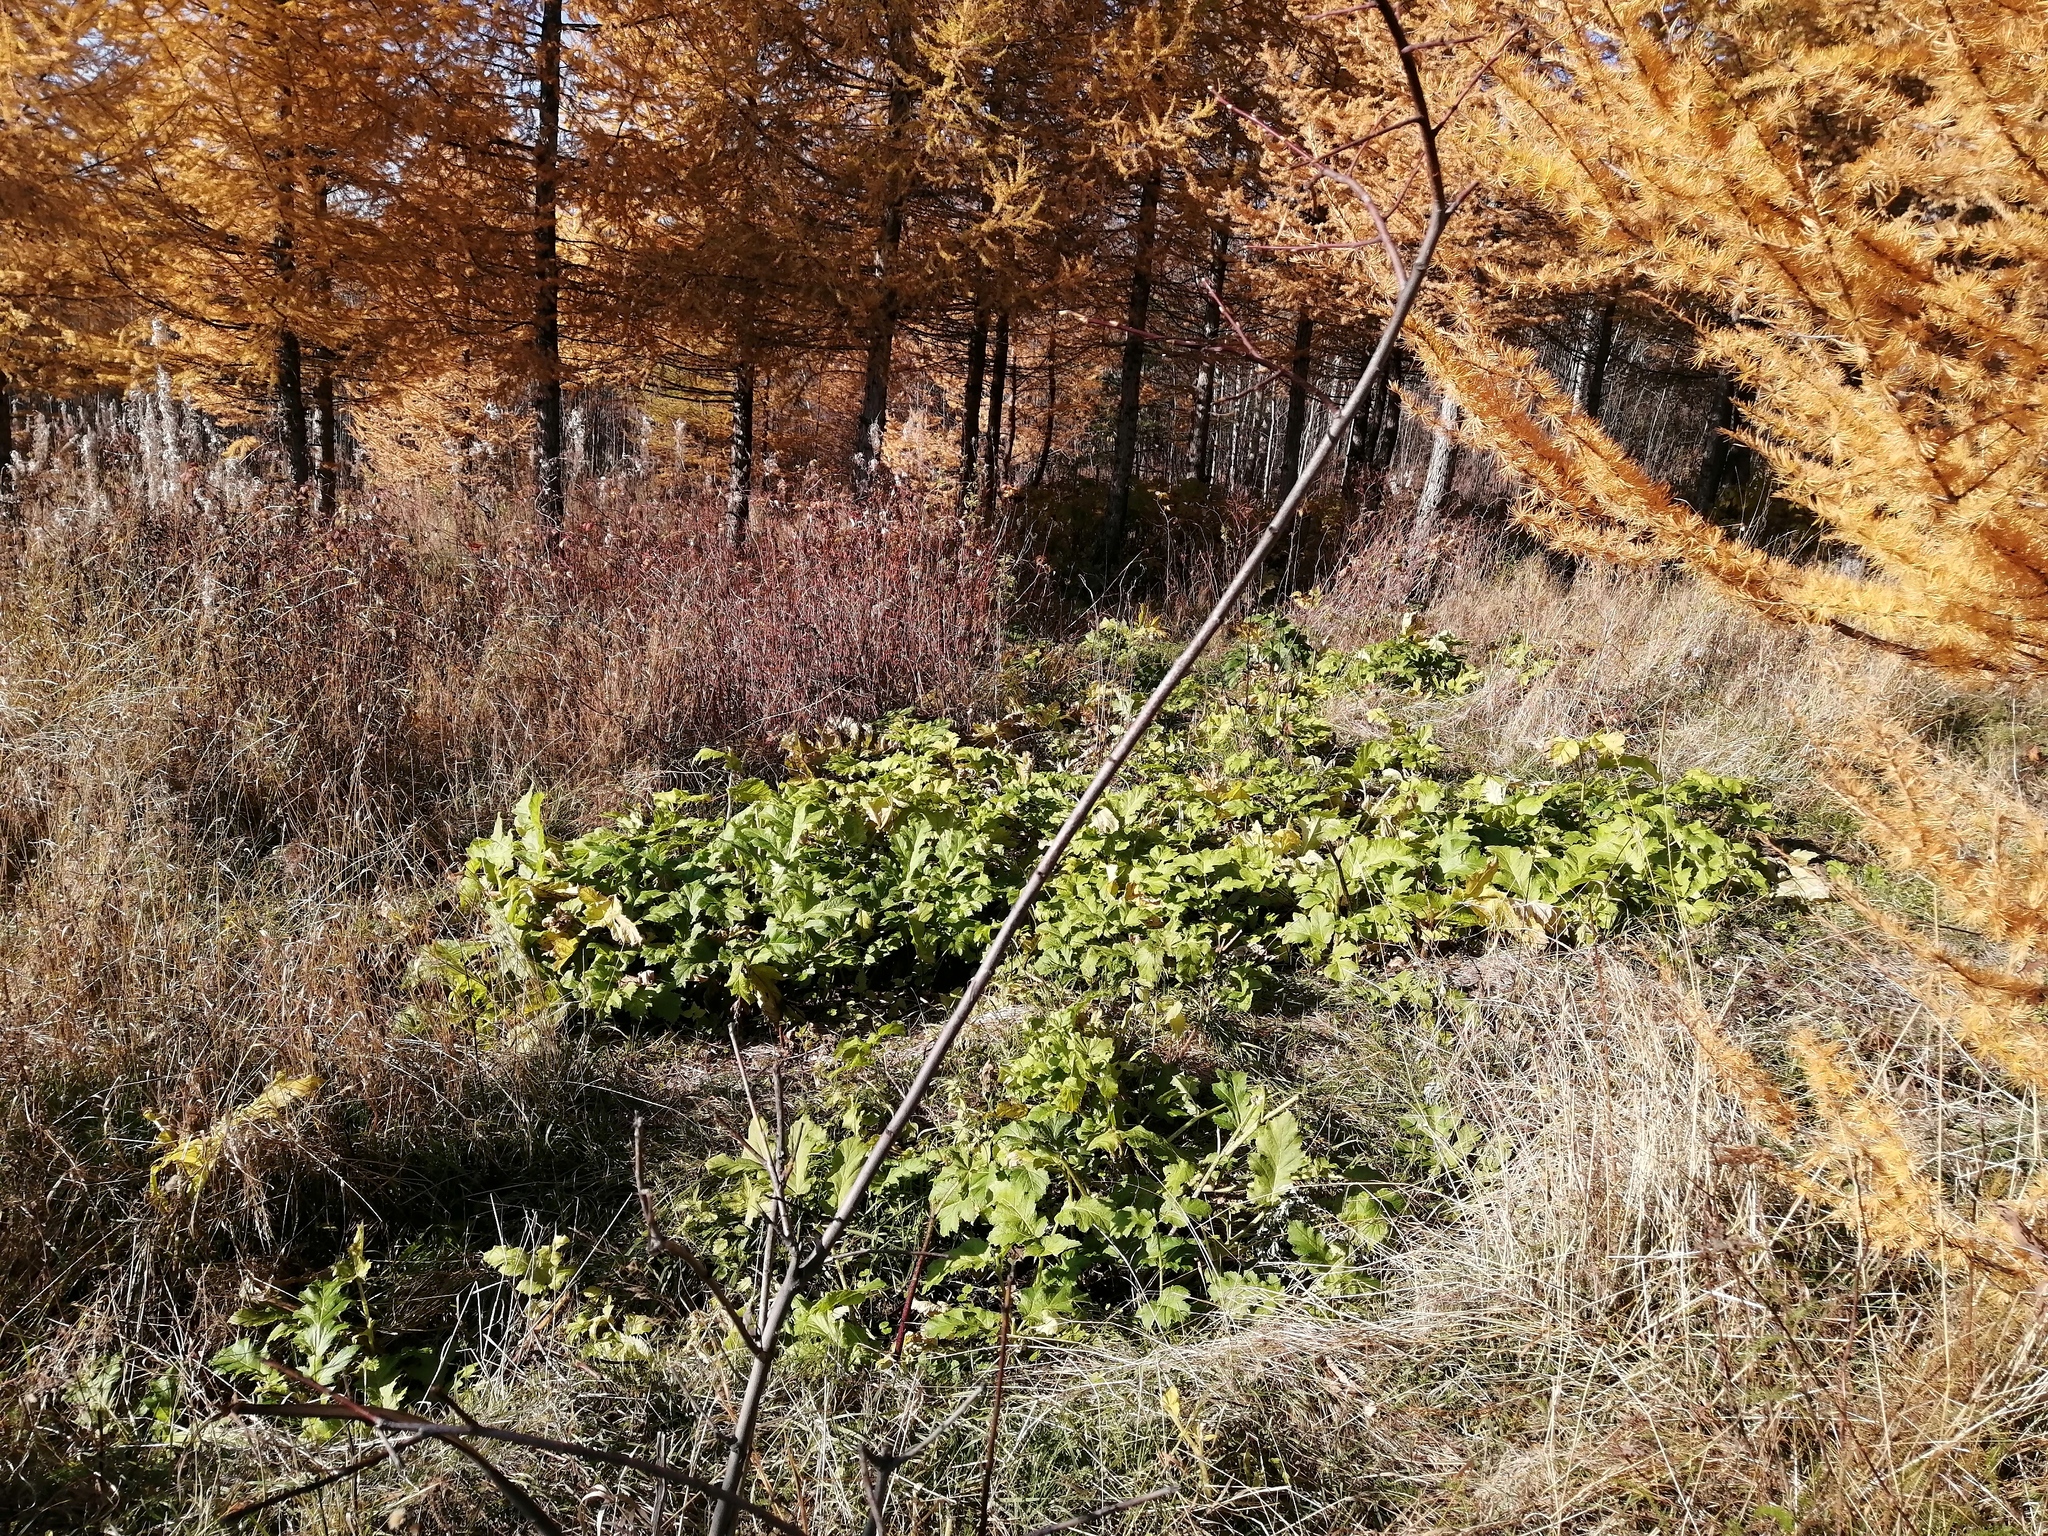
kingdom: Plantae
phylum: Tracheophyta
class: Magnoliopsida
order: Apiales
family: Apiaceae
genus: Heracleum
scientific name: Heracleum sosnowskyi
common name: Sosnowsky's hogweed
